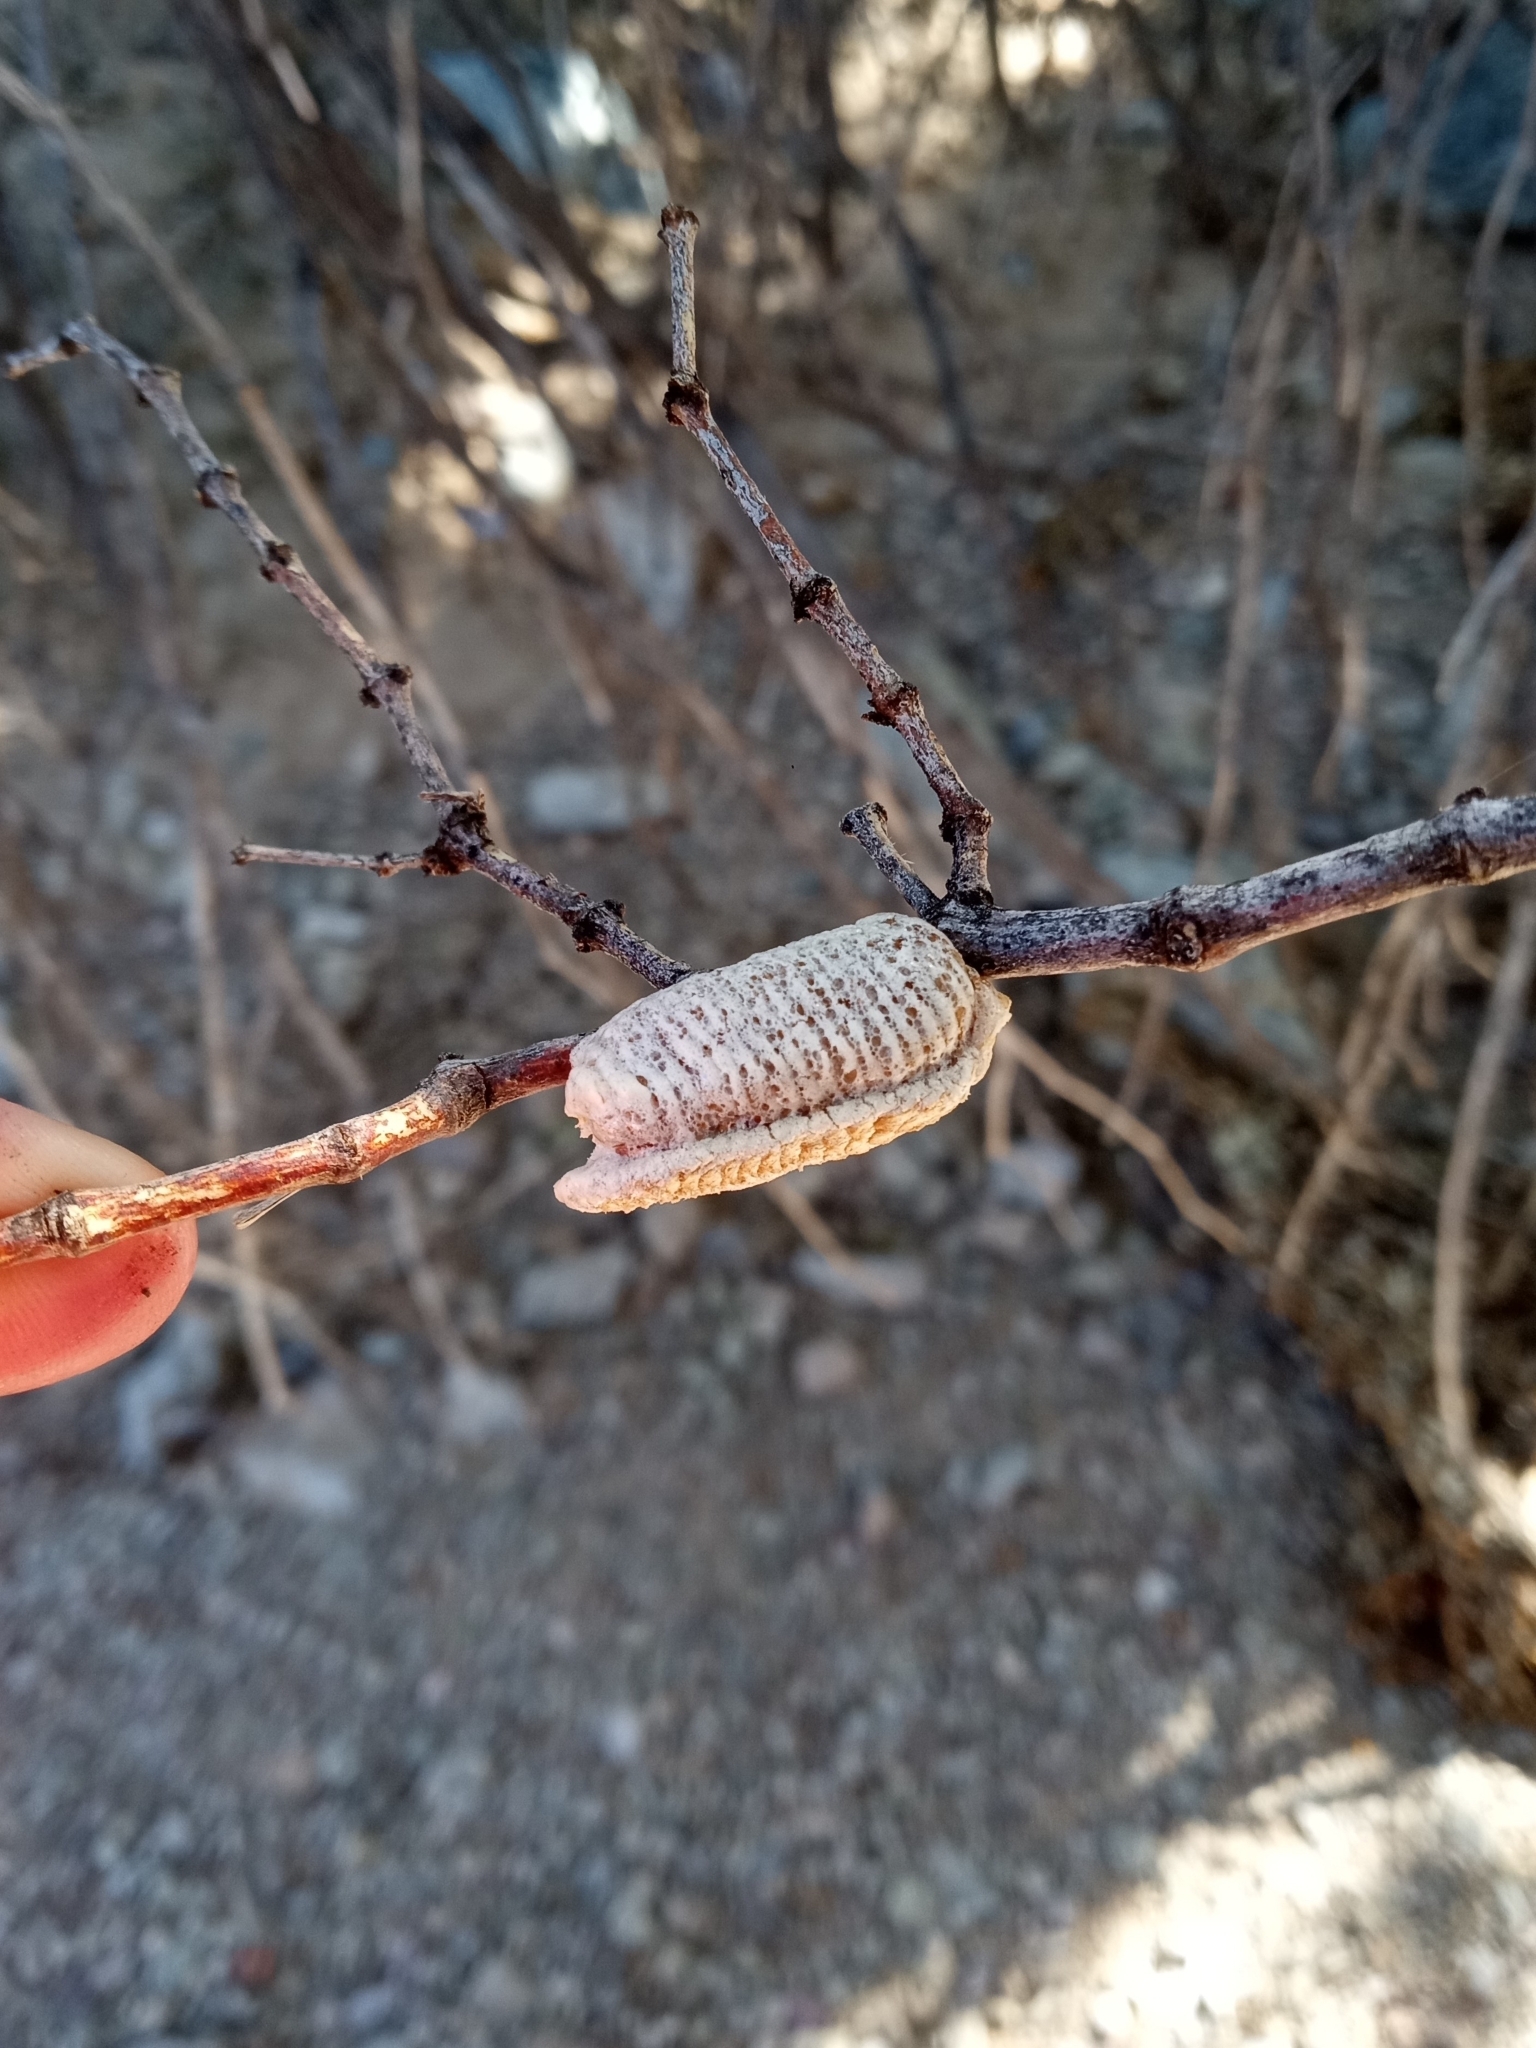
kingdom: Animalia
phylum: Arthropoda
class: Insecta
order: Mantodea
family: Mantidae
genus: Stagmomantis
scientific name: Stagmomantis californica
